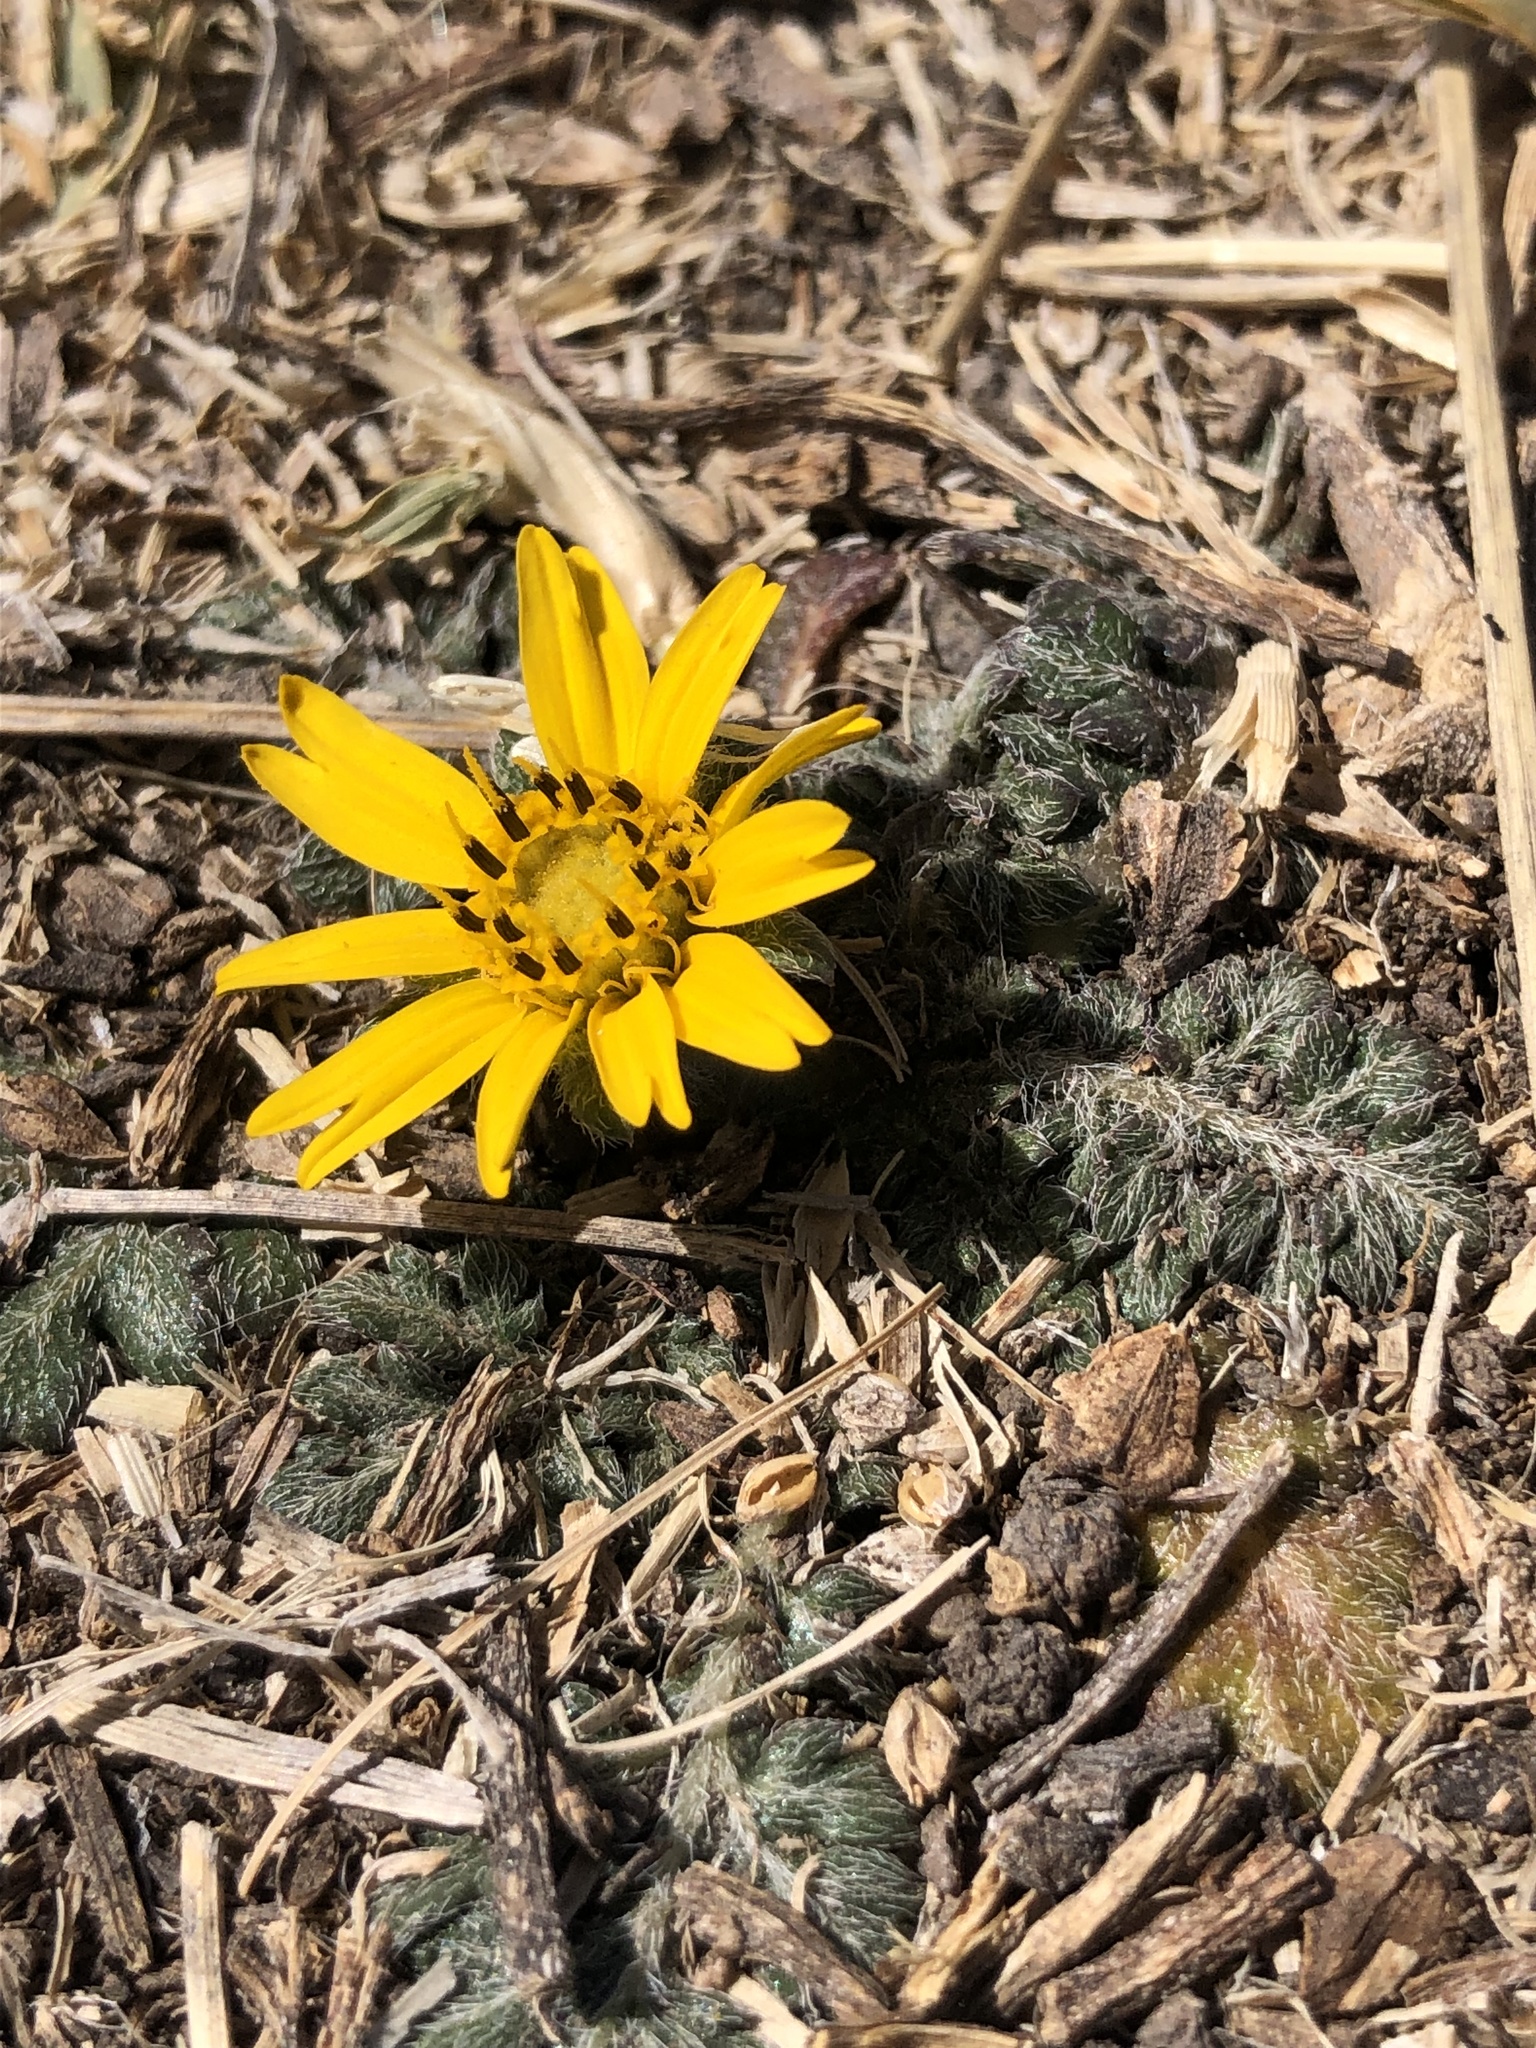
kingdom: Plantae
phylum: Tracheophyta
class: Magnoliopsida
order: Asterales
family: Asteraceae
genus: Dugesia
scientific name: Dugesia mexicana
